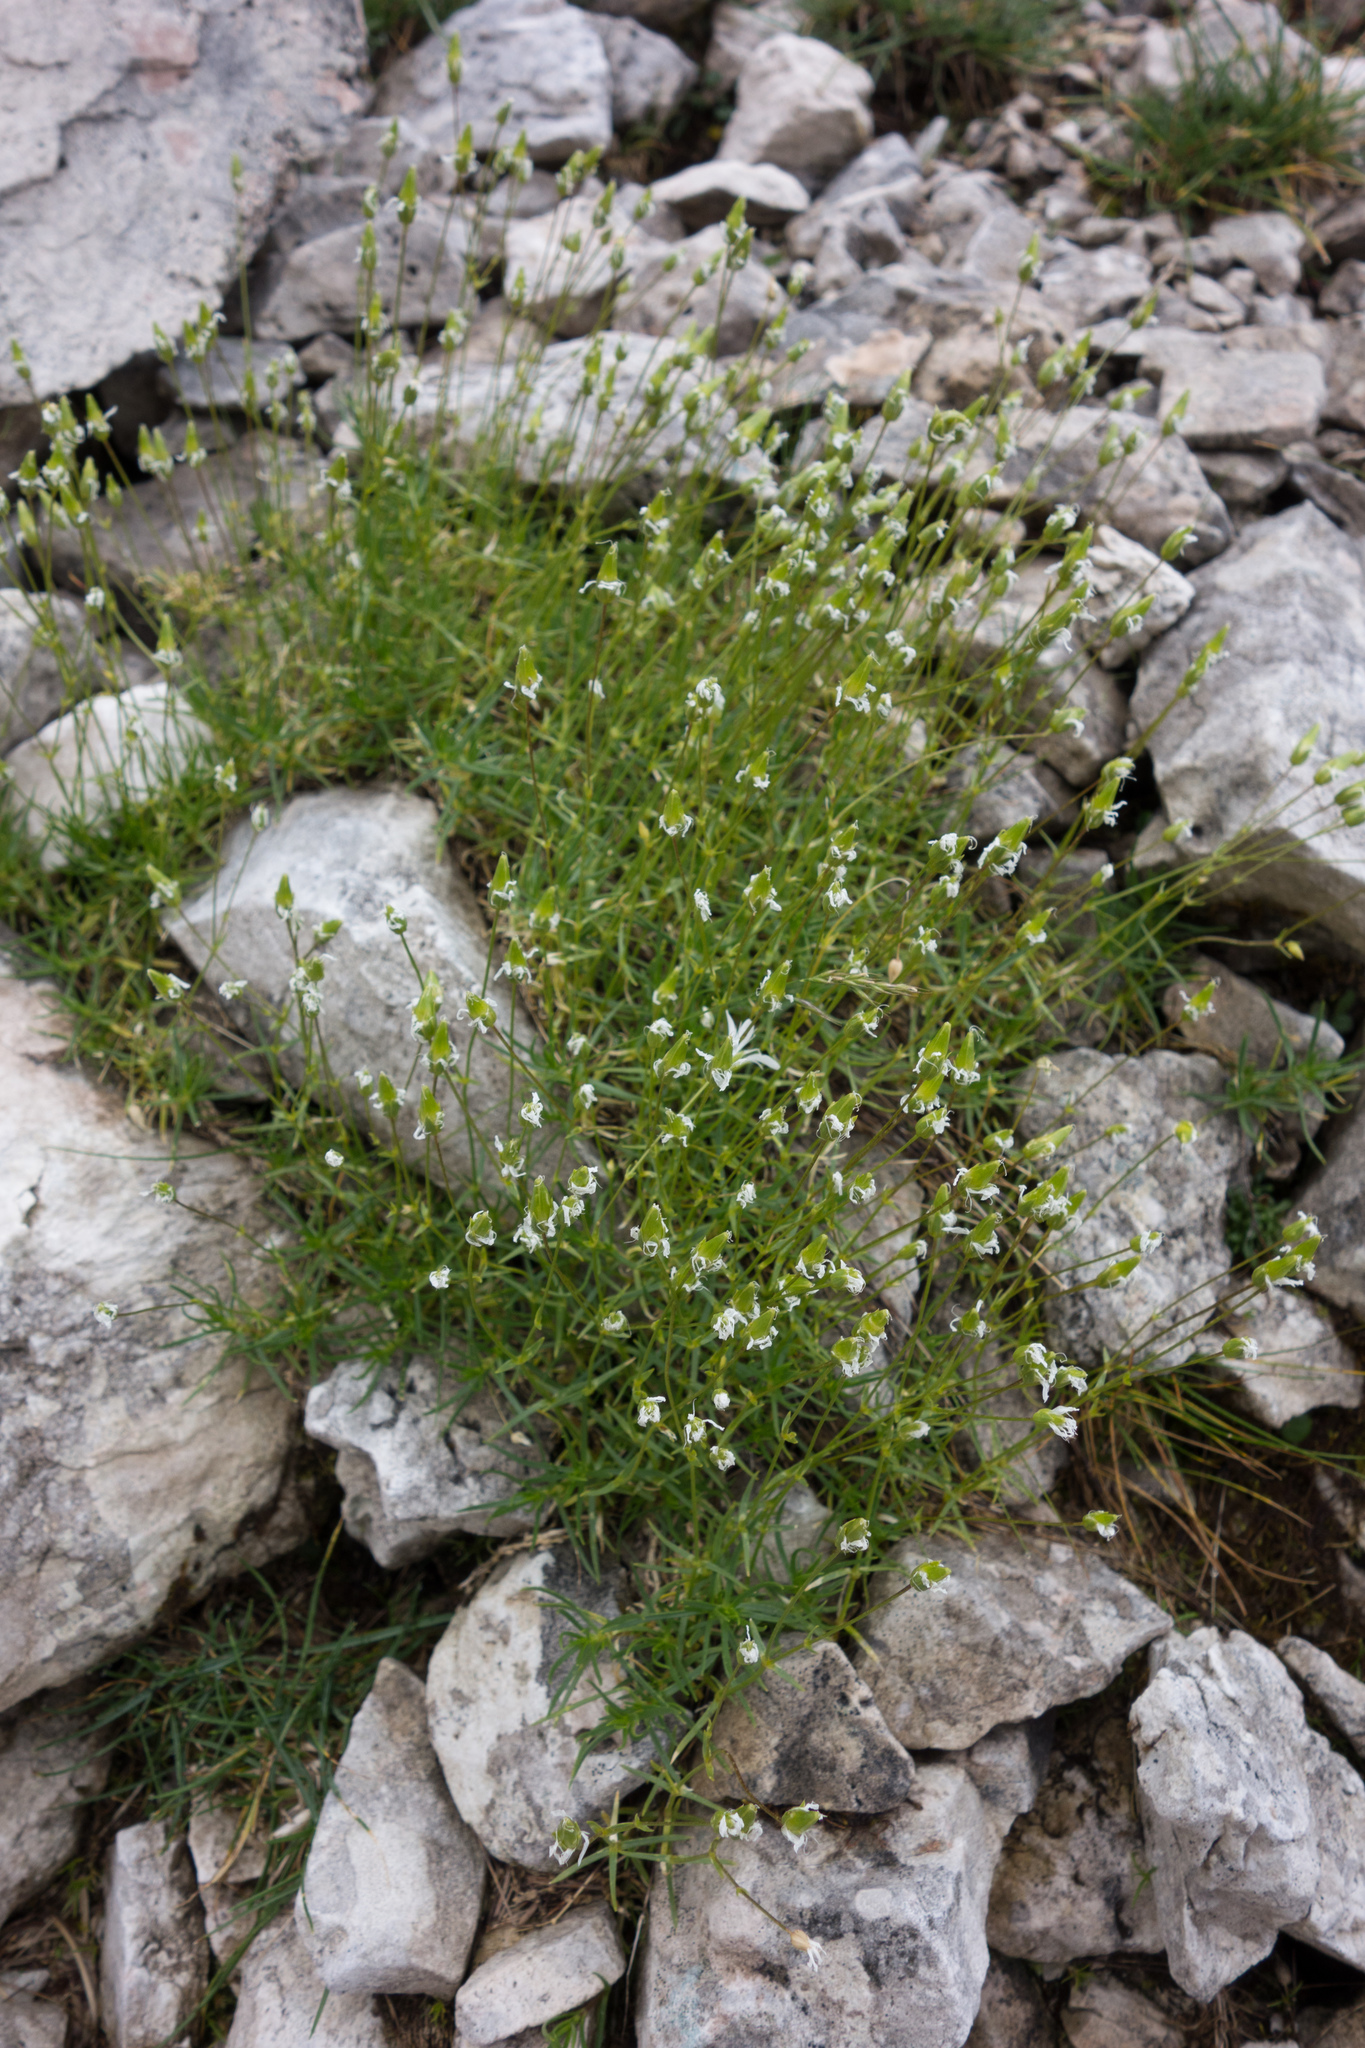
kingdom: Plantae
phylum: Tracheophyta
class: Magnoliopsida
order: Caryophyllales
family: Caryophyllaceae
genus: Sabulina
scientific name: Sabulina austriaca
